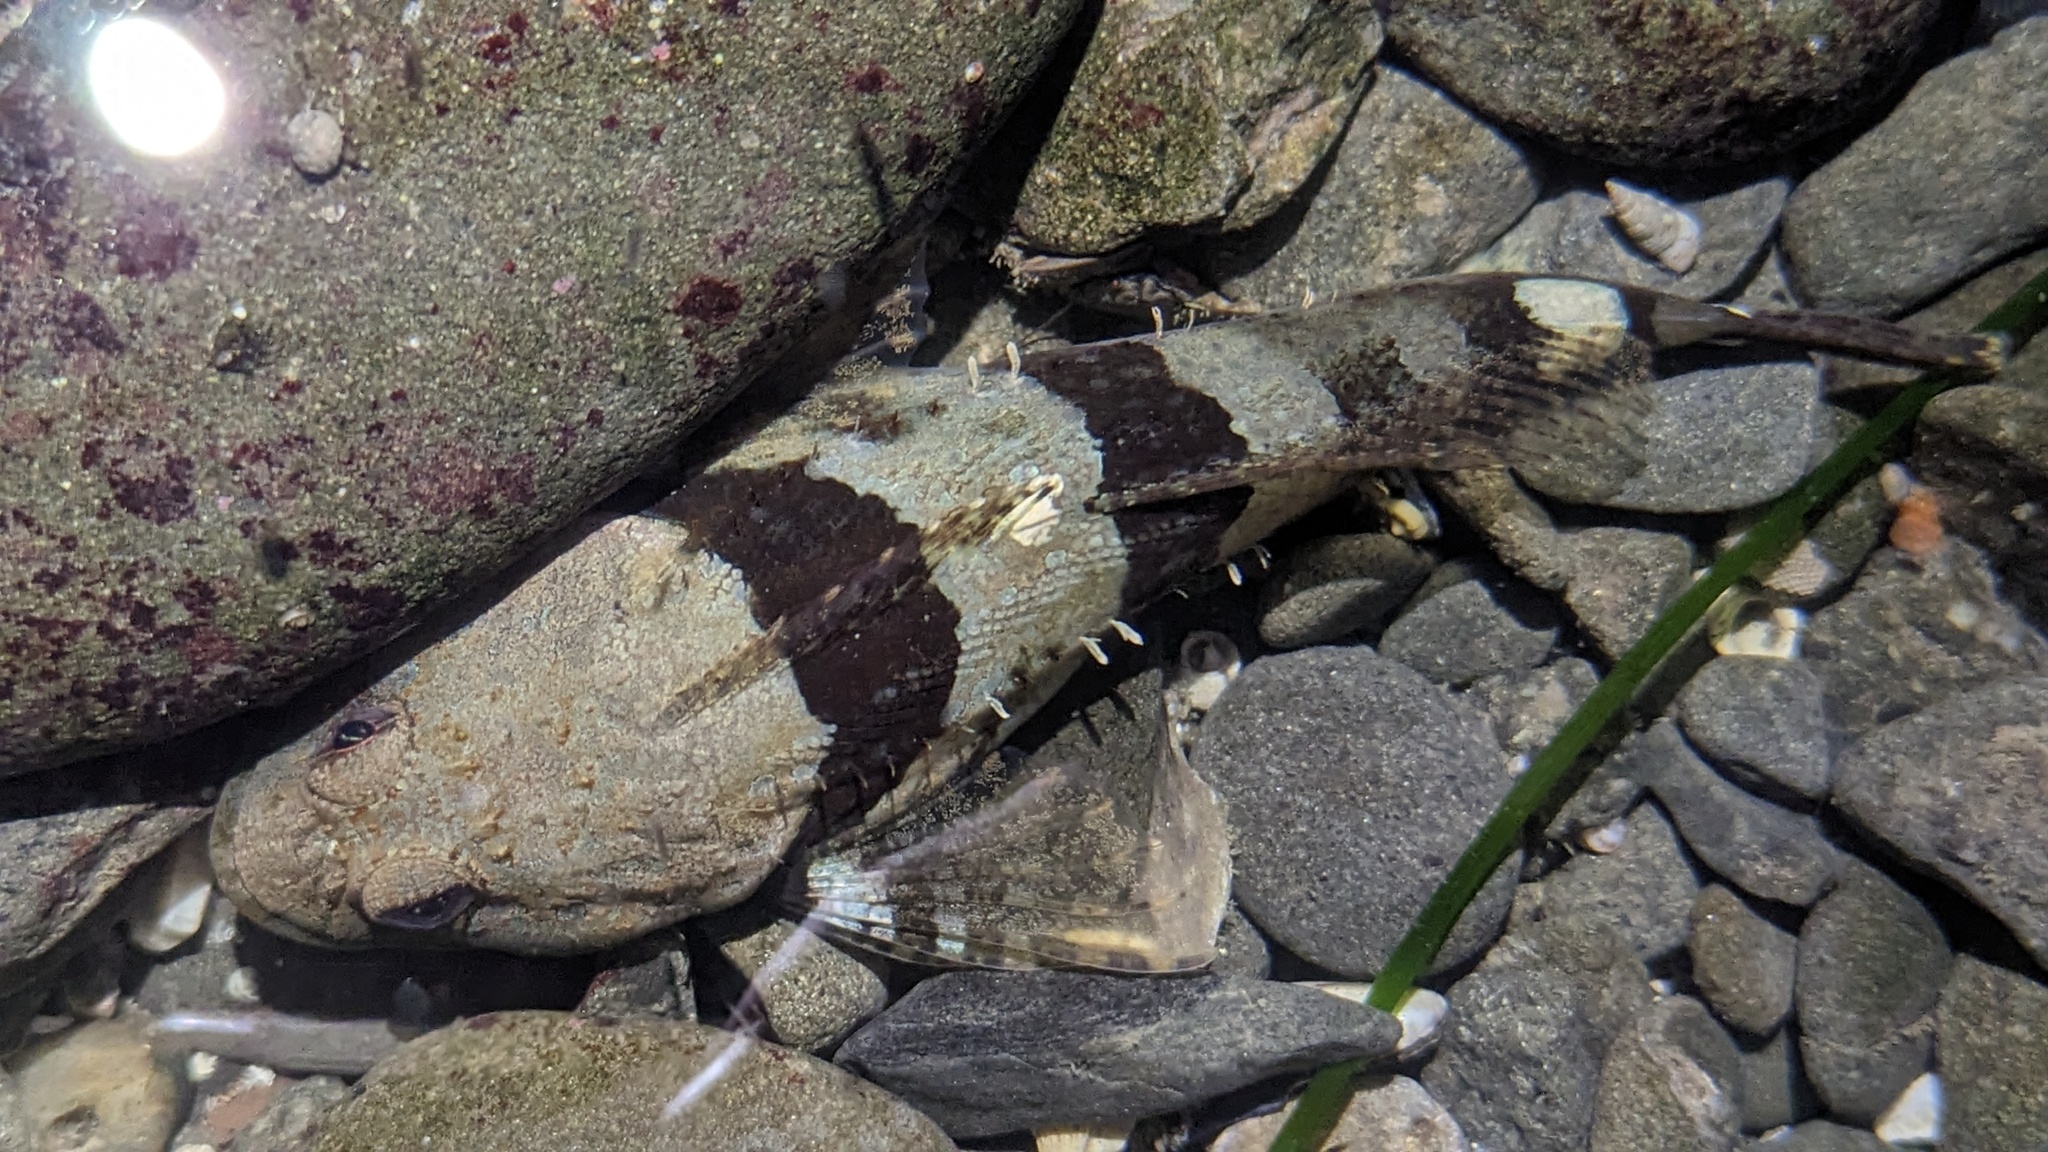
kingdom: Animalia
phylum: Chordata
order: Scorpaeniformes
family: Cottidae
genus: Artedius
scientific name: Artedius lateralis
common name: Smooth-head sculpin
